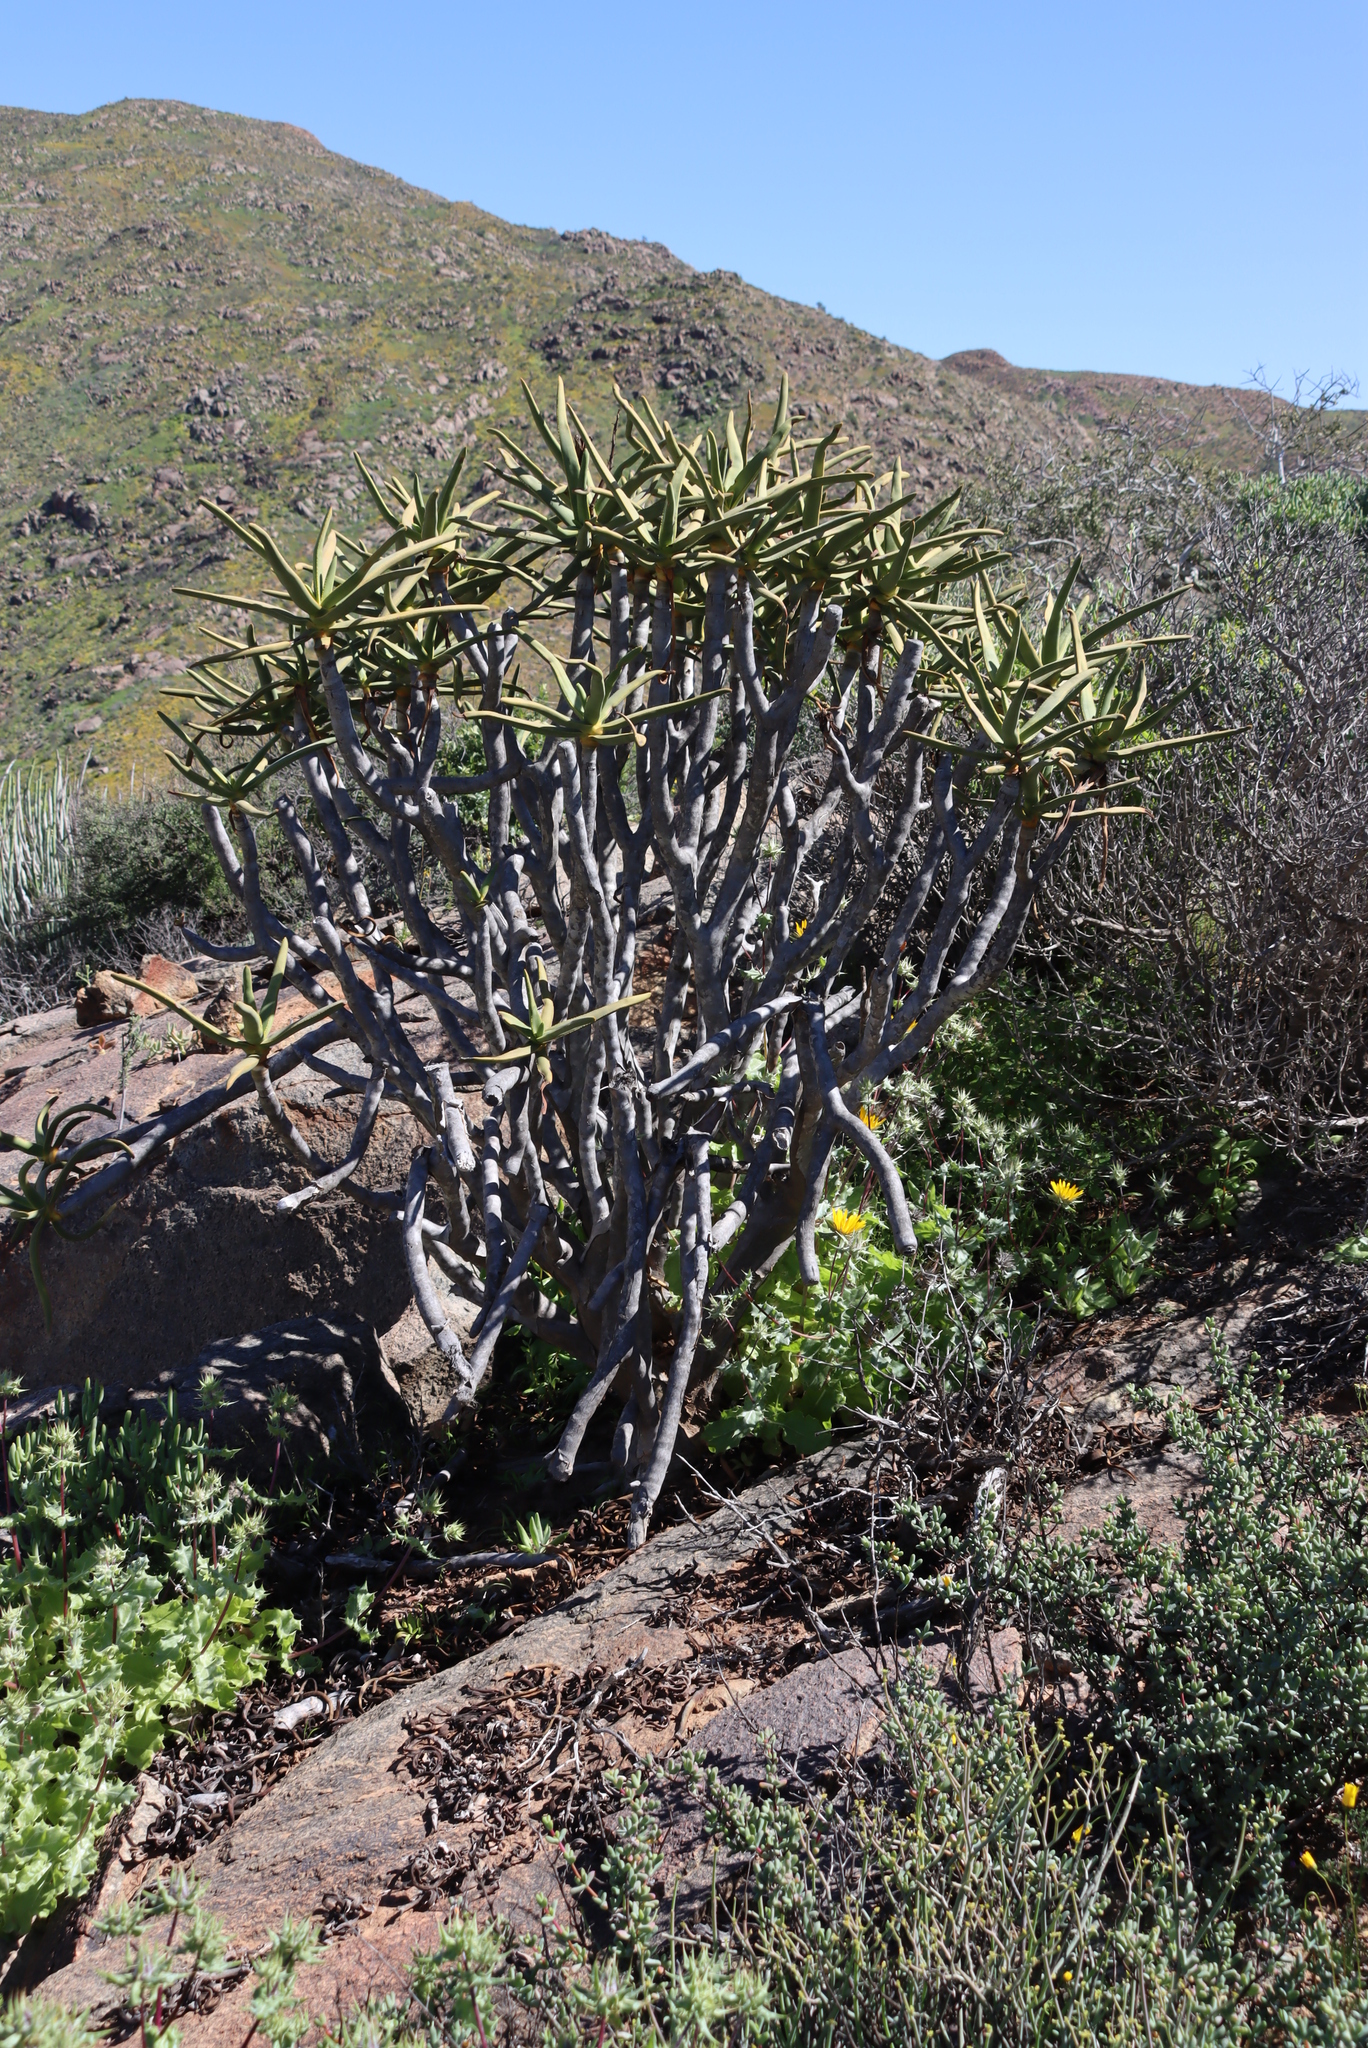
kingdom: Plantae
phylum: Tracheophyta
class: Liliopsida
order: Asparagales
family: Asphodelaceae
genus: Aloidendron
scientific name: Aloidendron ramosissimum
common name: Bush quiver tree
